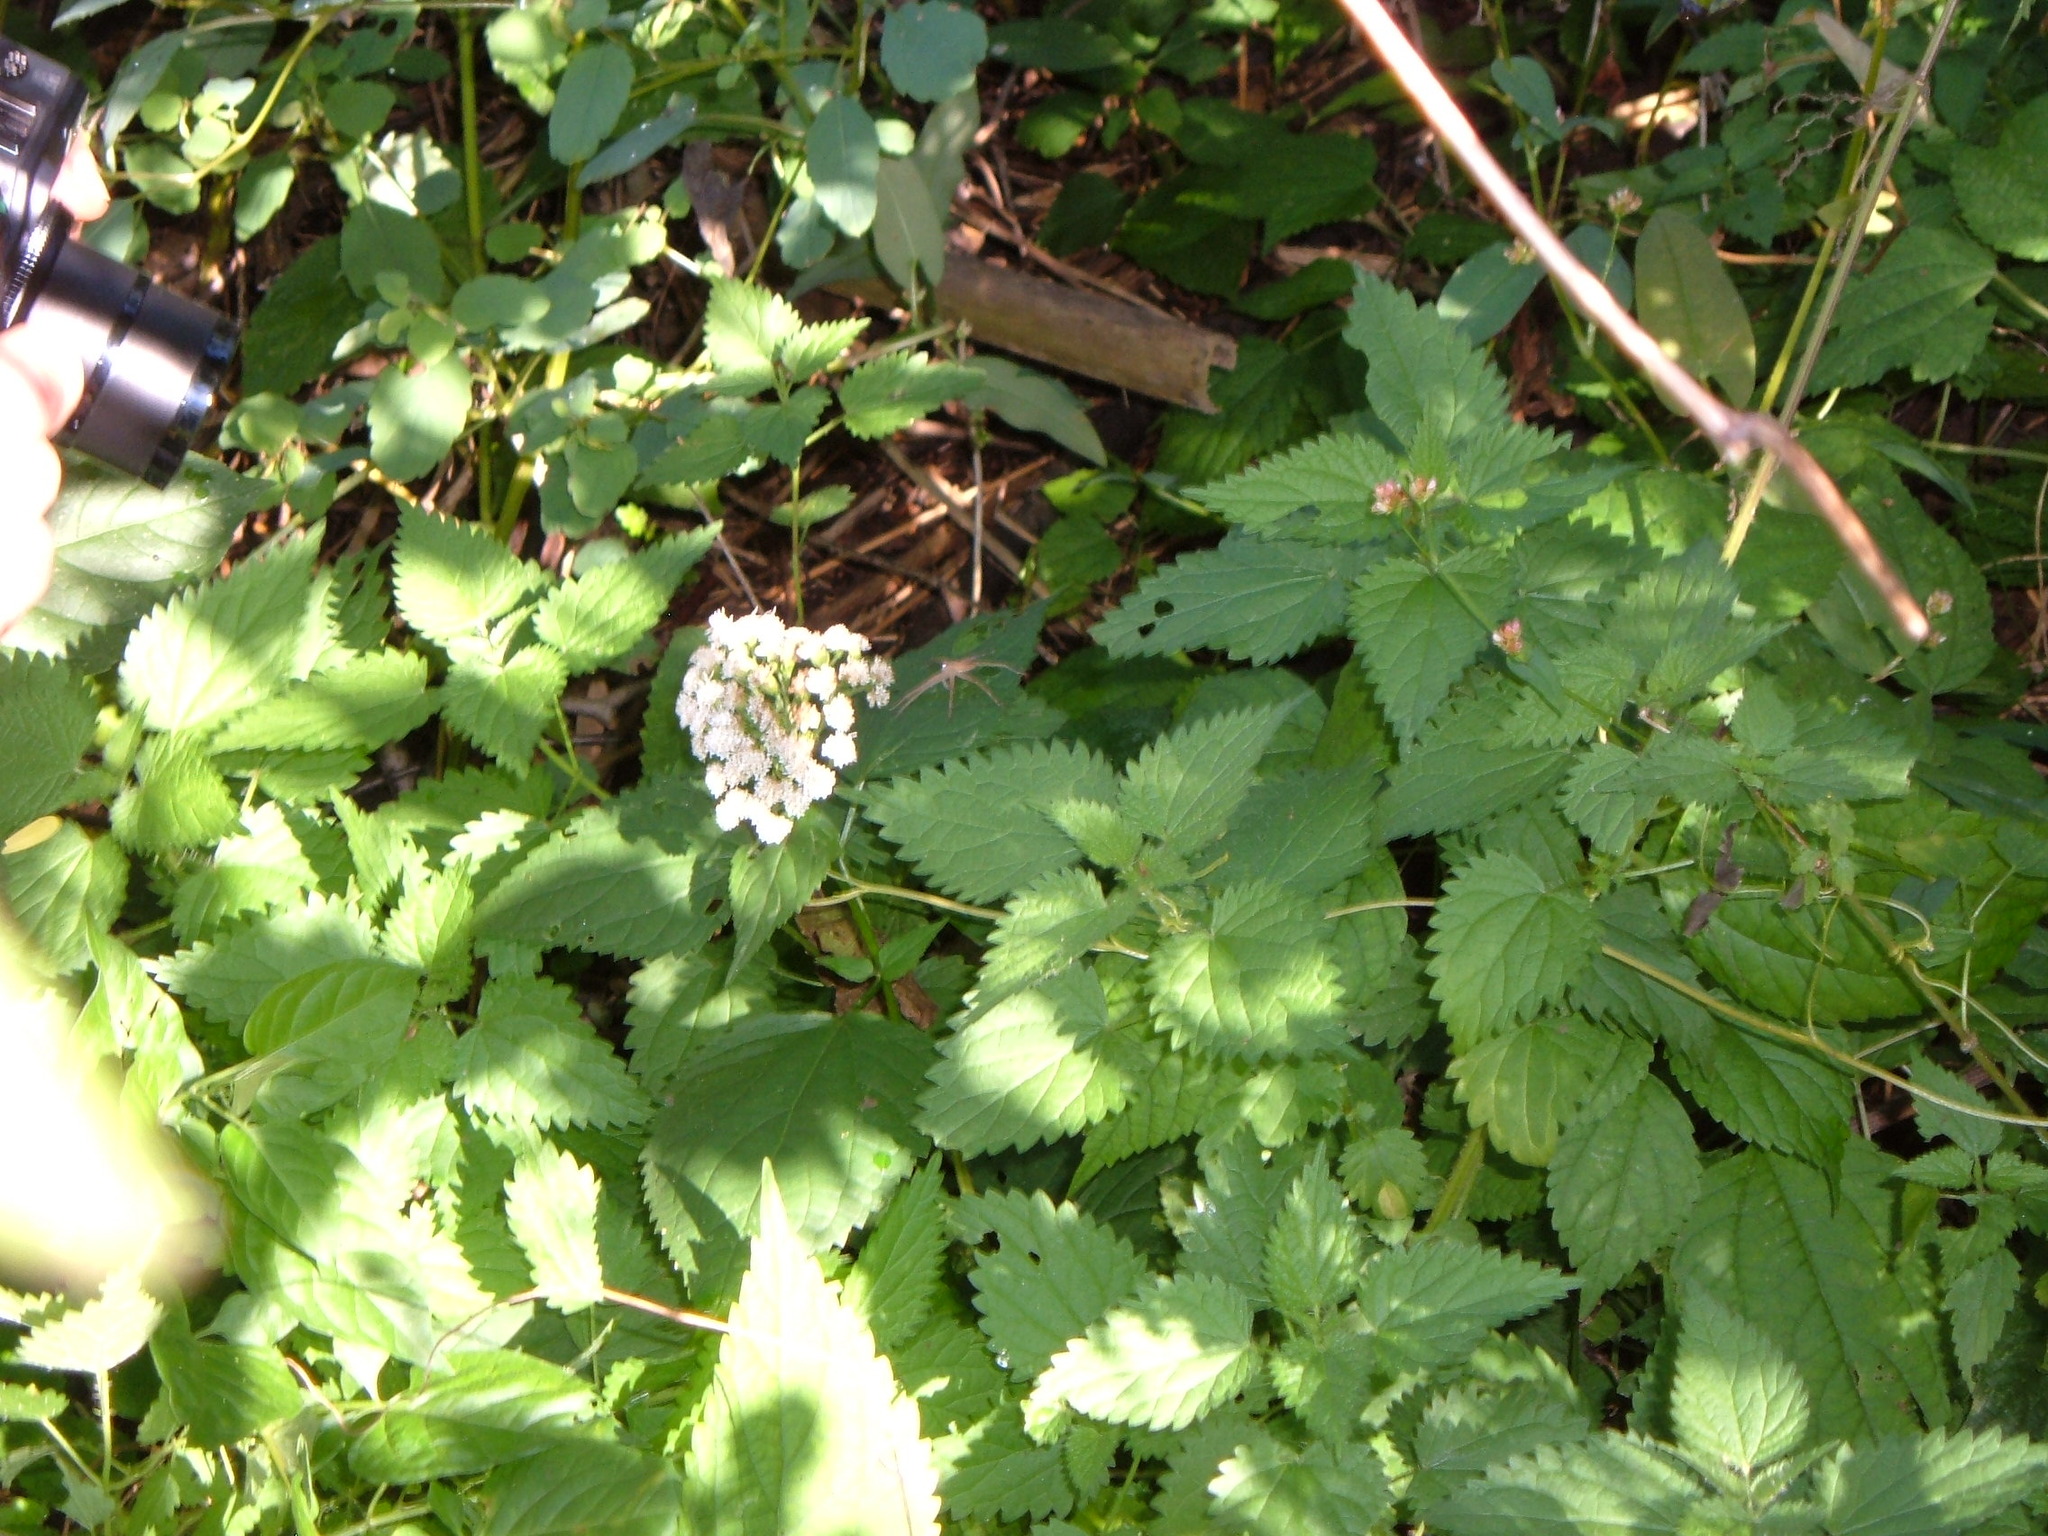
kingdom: Plantae
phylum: Tracheophyta
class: Magnoliopsida
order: Asterales
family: Asteraceae
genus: Ageratina
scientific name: Ageratina altissima
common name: White snakeroot
